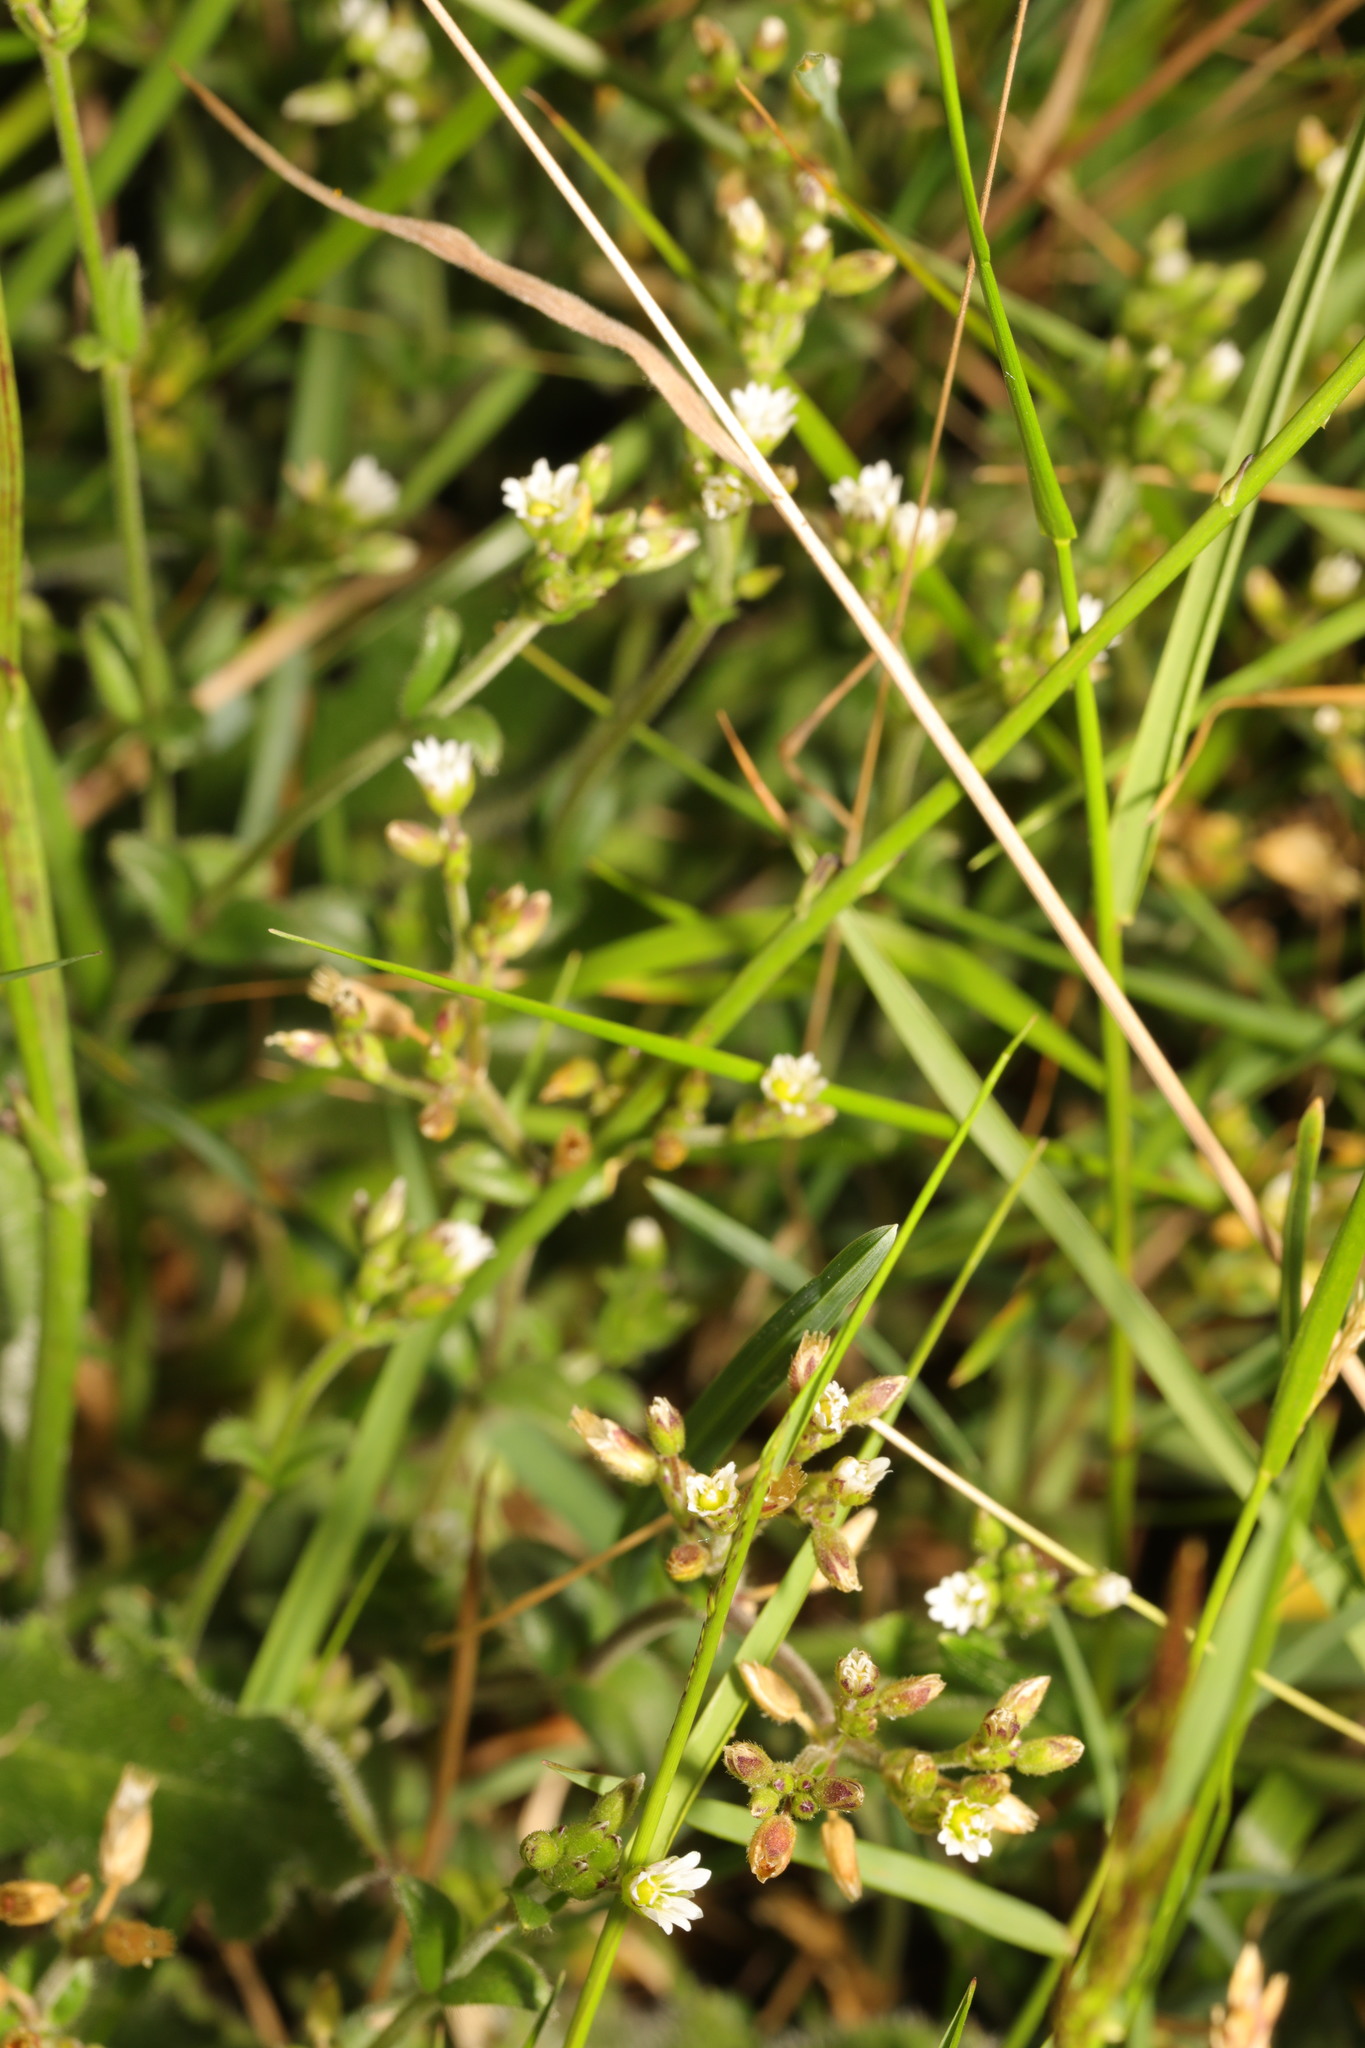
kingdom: Plantae
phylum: Tracheophyta
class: Magnoliopsida
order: Caryophyllales
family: Caryophyllaceae
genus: Cerastium
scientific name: Cerastium fontanum
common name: Common mouse-ear
